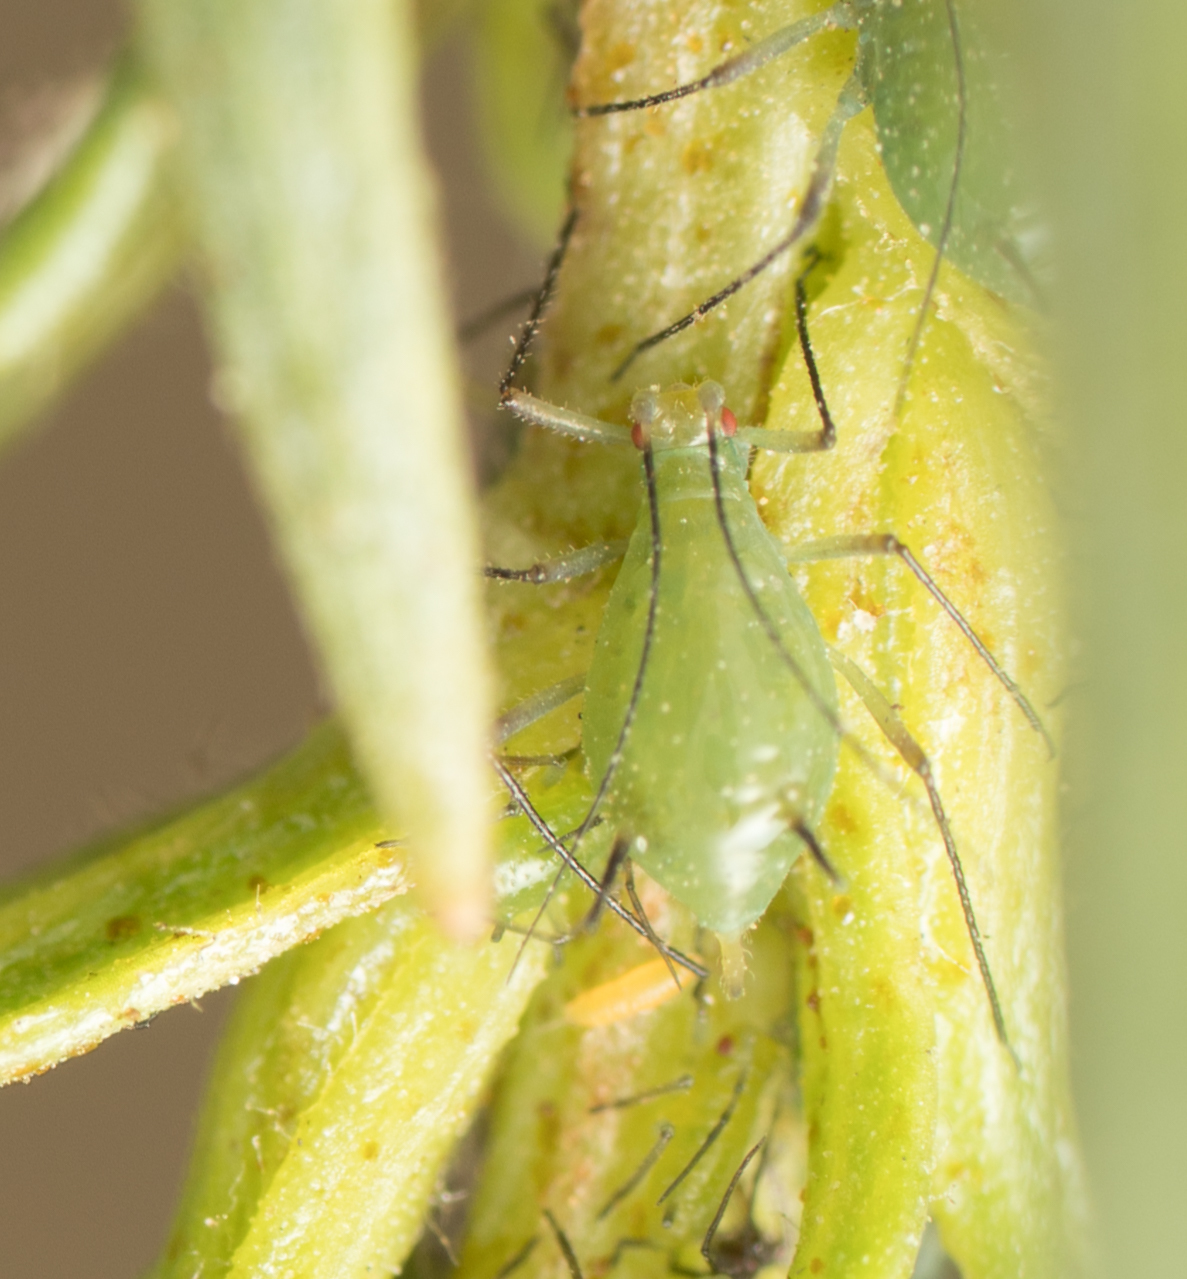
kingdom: Animalia
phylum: Arthropoda
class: Insecta
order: Hemiptera
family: Aphididae
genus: Macrosiphoniella
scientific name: Macrosiphoniella glabrum
